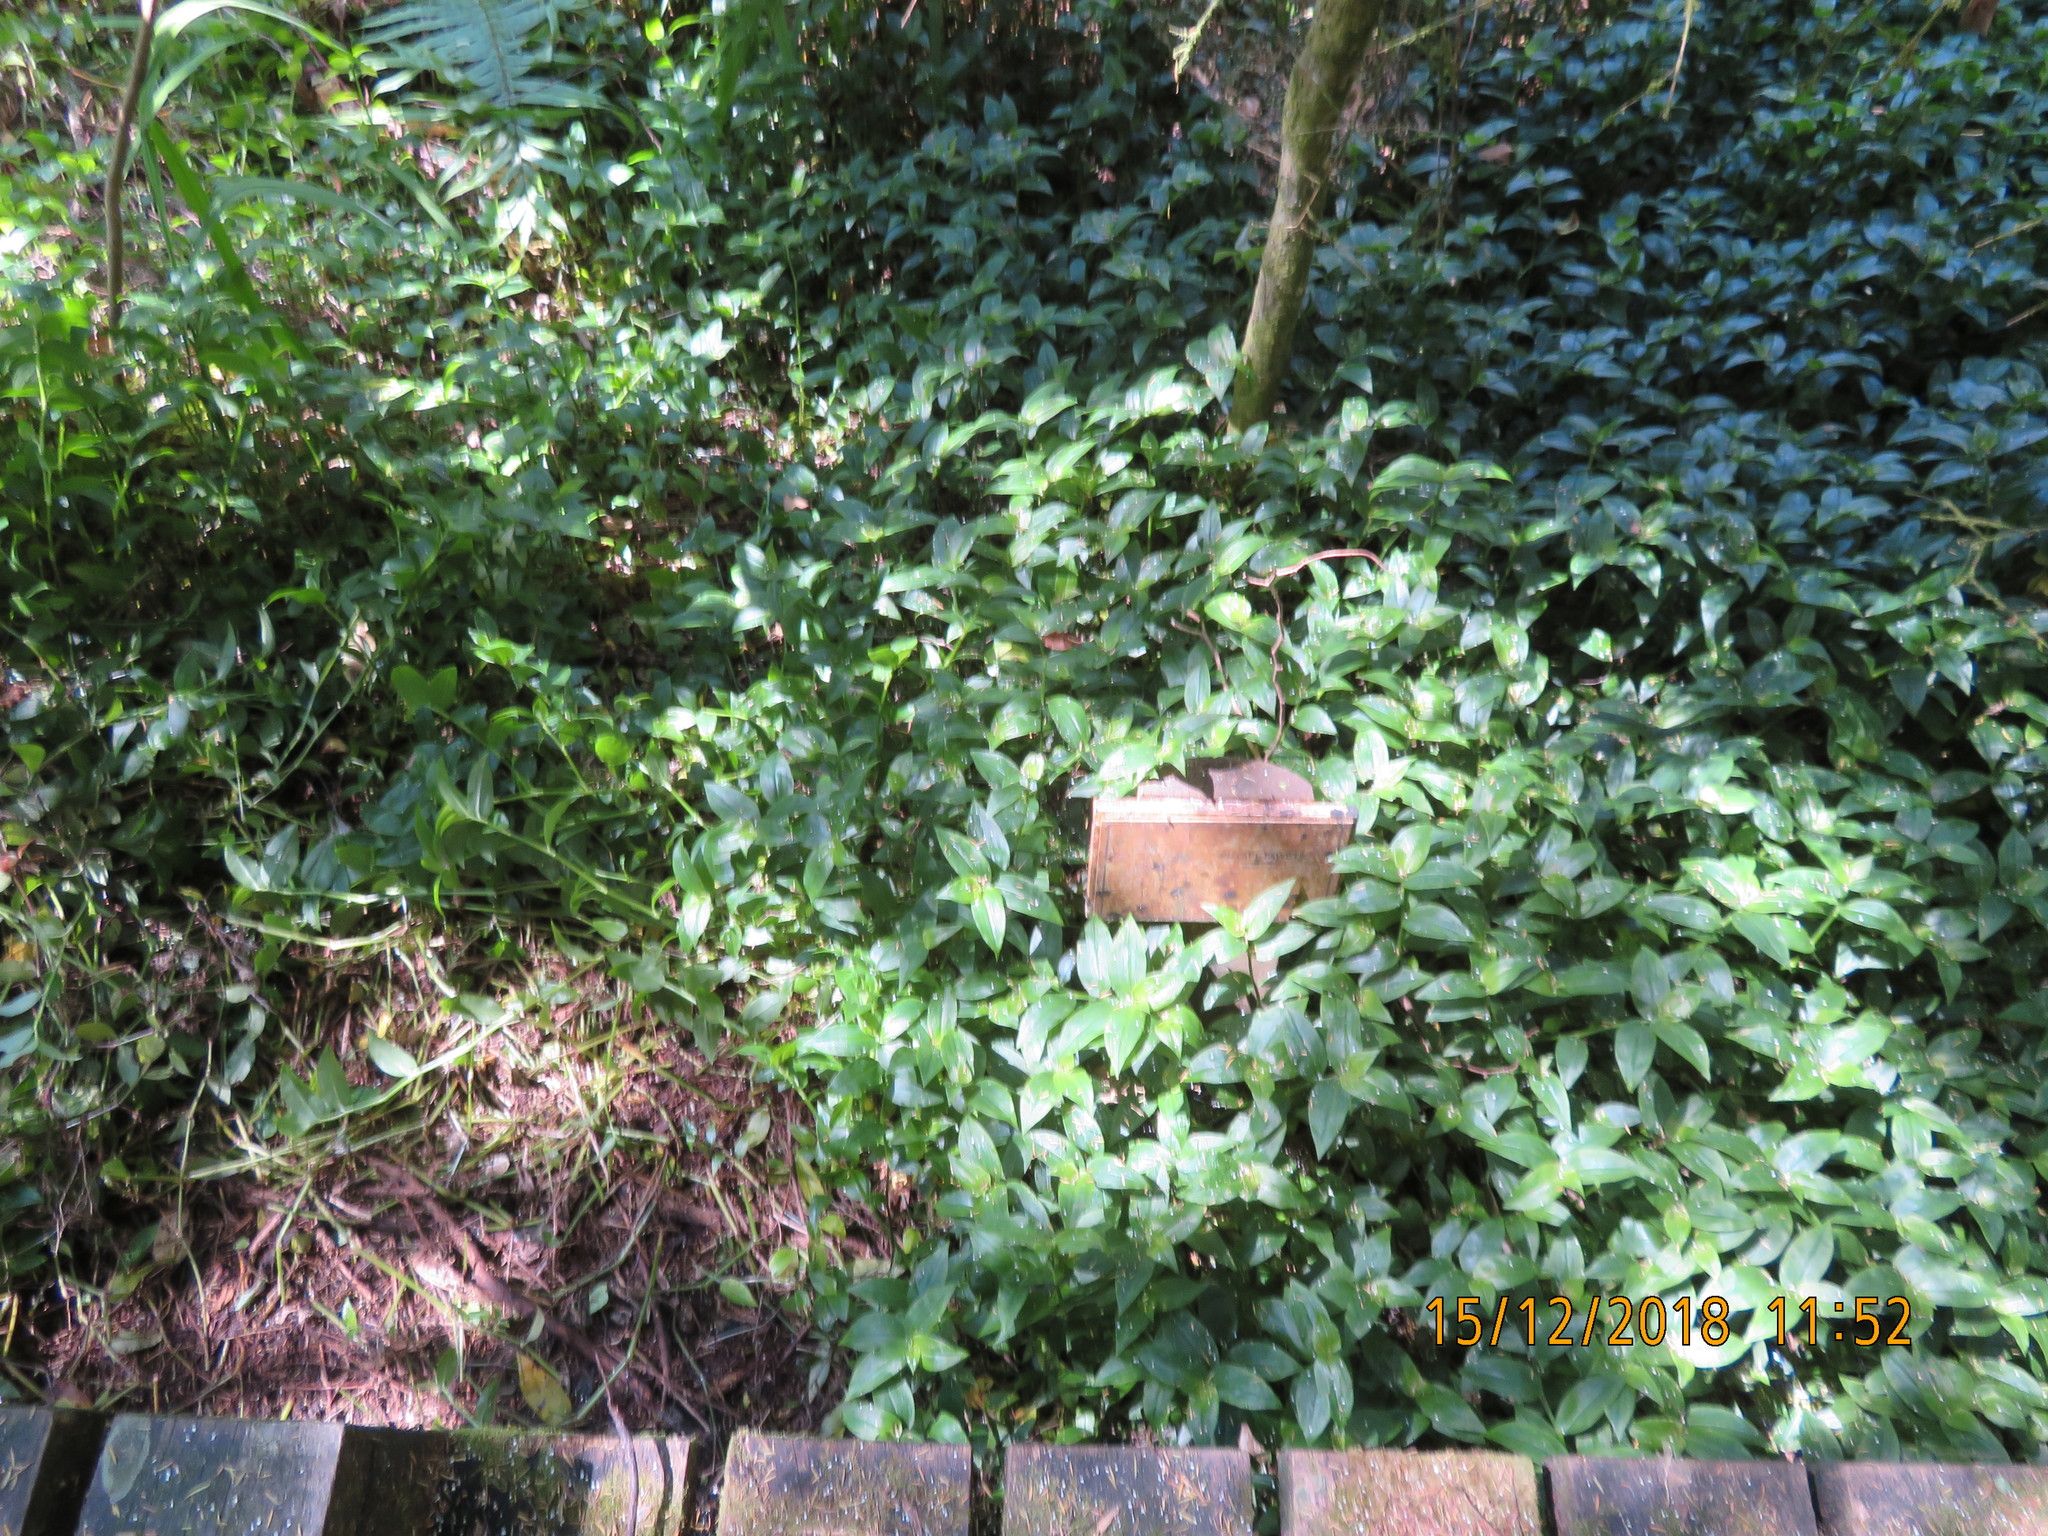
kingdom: Plantae
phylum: Tracheophyta
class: Liliopsida
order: Commelinales
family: Commelinaceae
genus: Tradescantia
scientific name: Tradescantia fluminensis
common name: Wandering-jew
